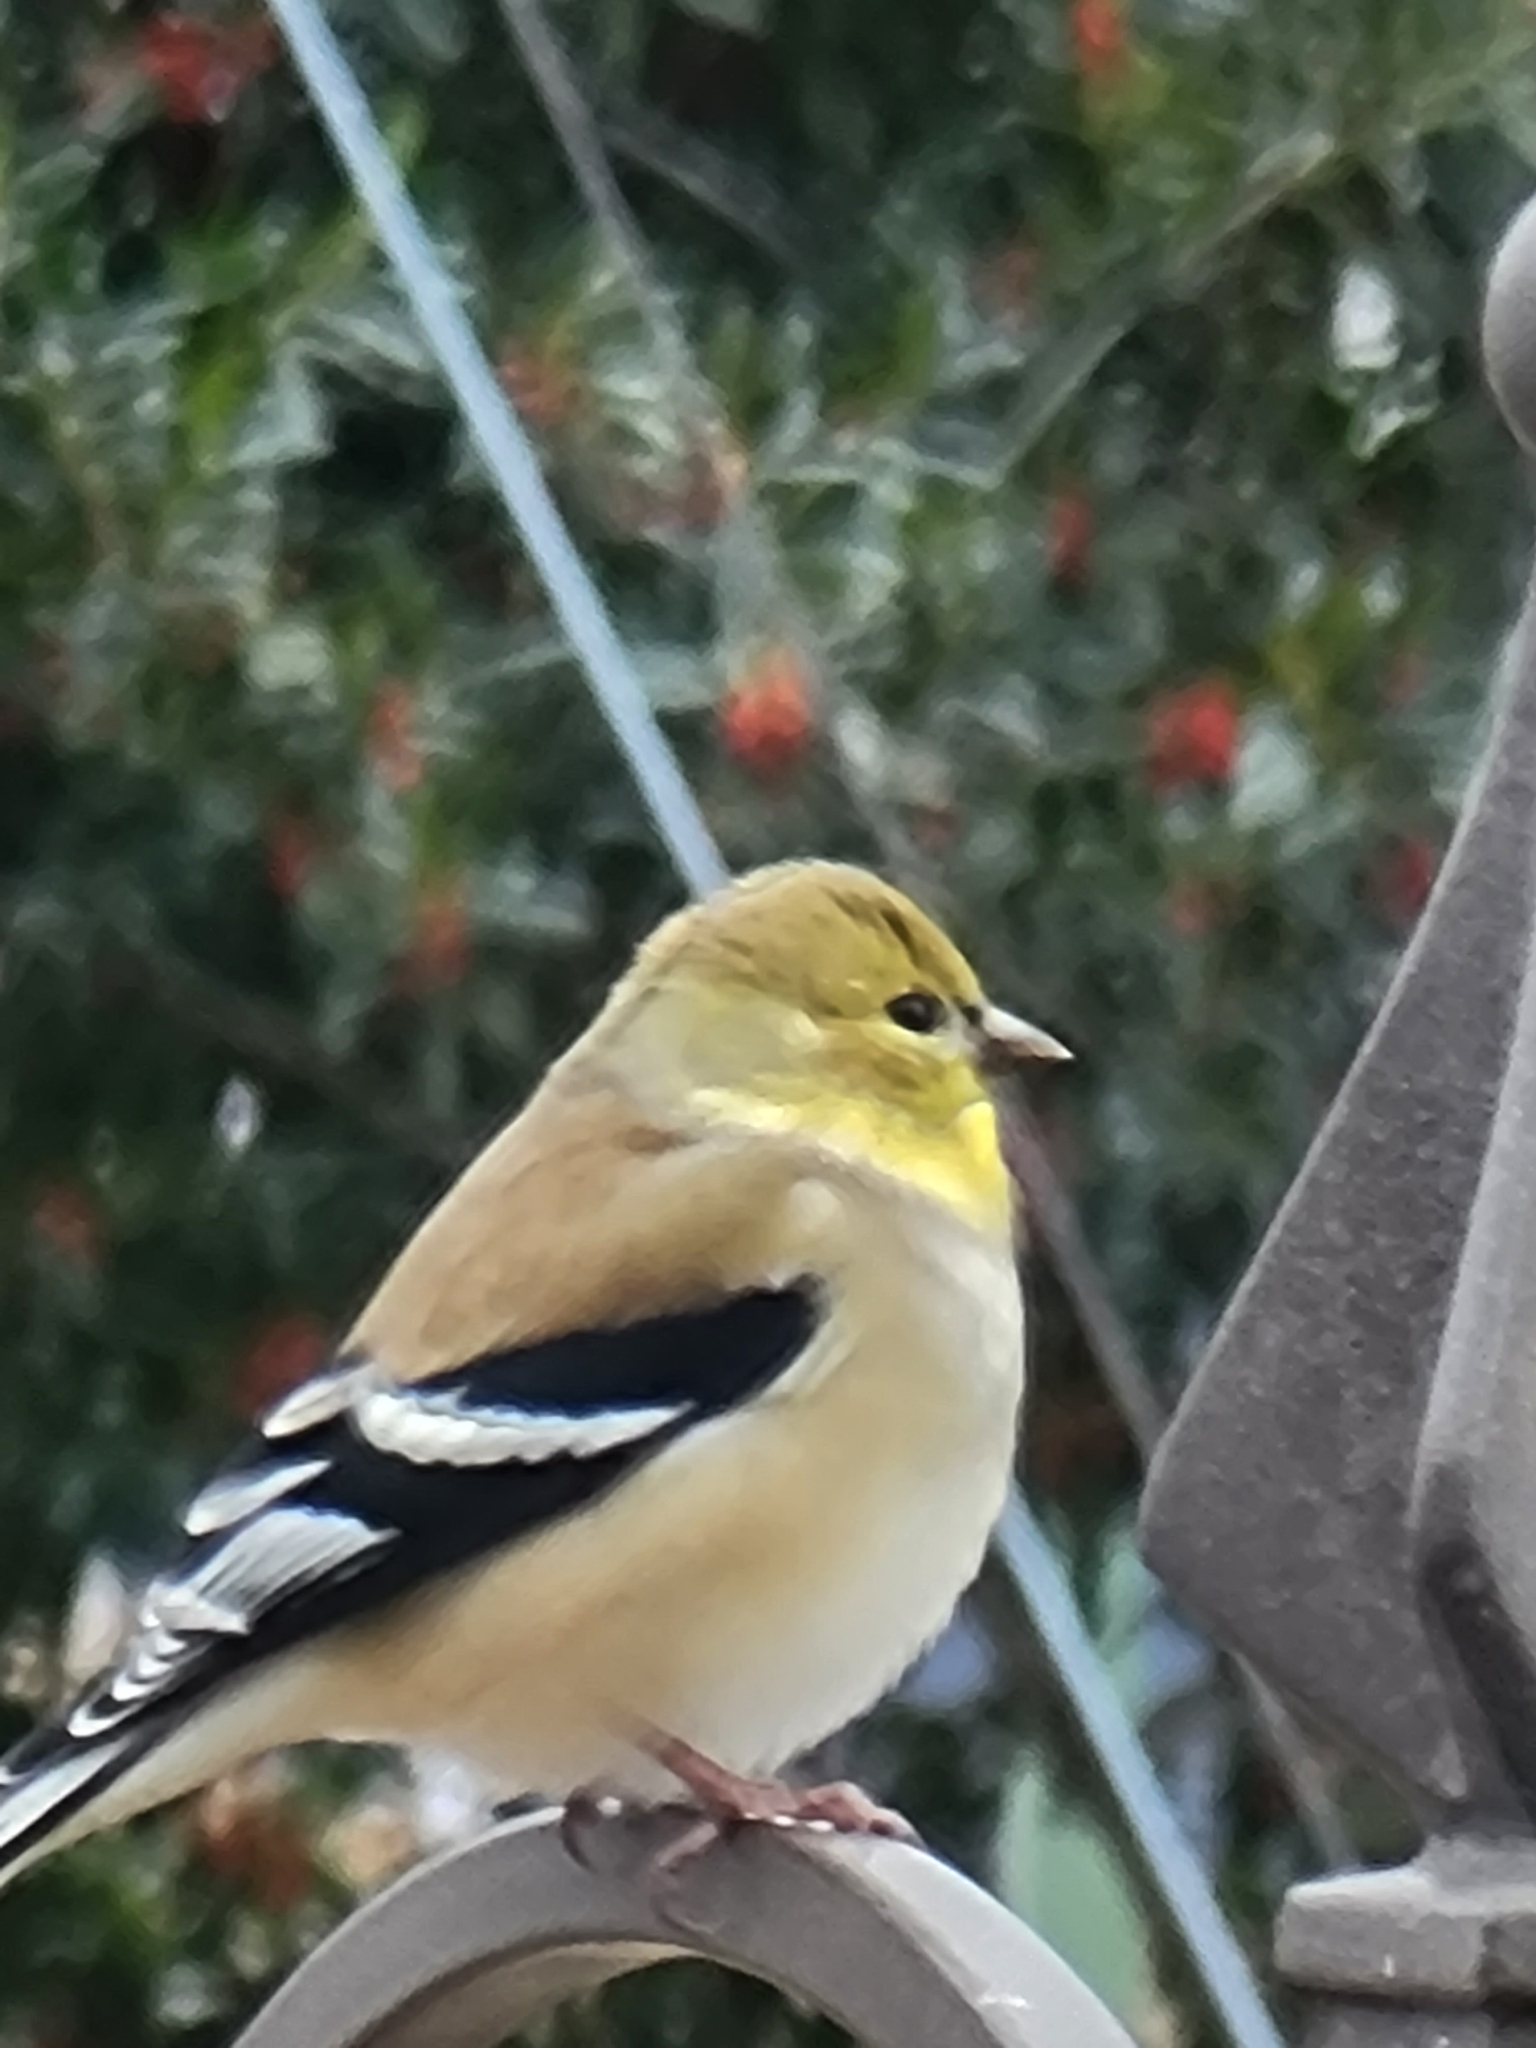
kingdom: Animalia
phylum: Chordata
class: Aves
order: Passeriformes
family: Fringillidae
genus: Spinus
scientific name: Spinus tristis
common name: American goldfinch
